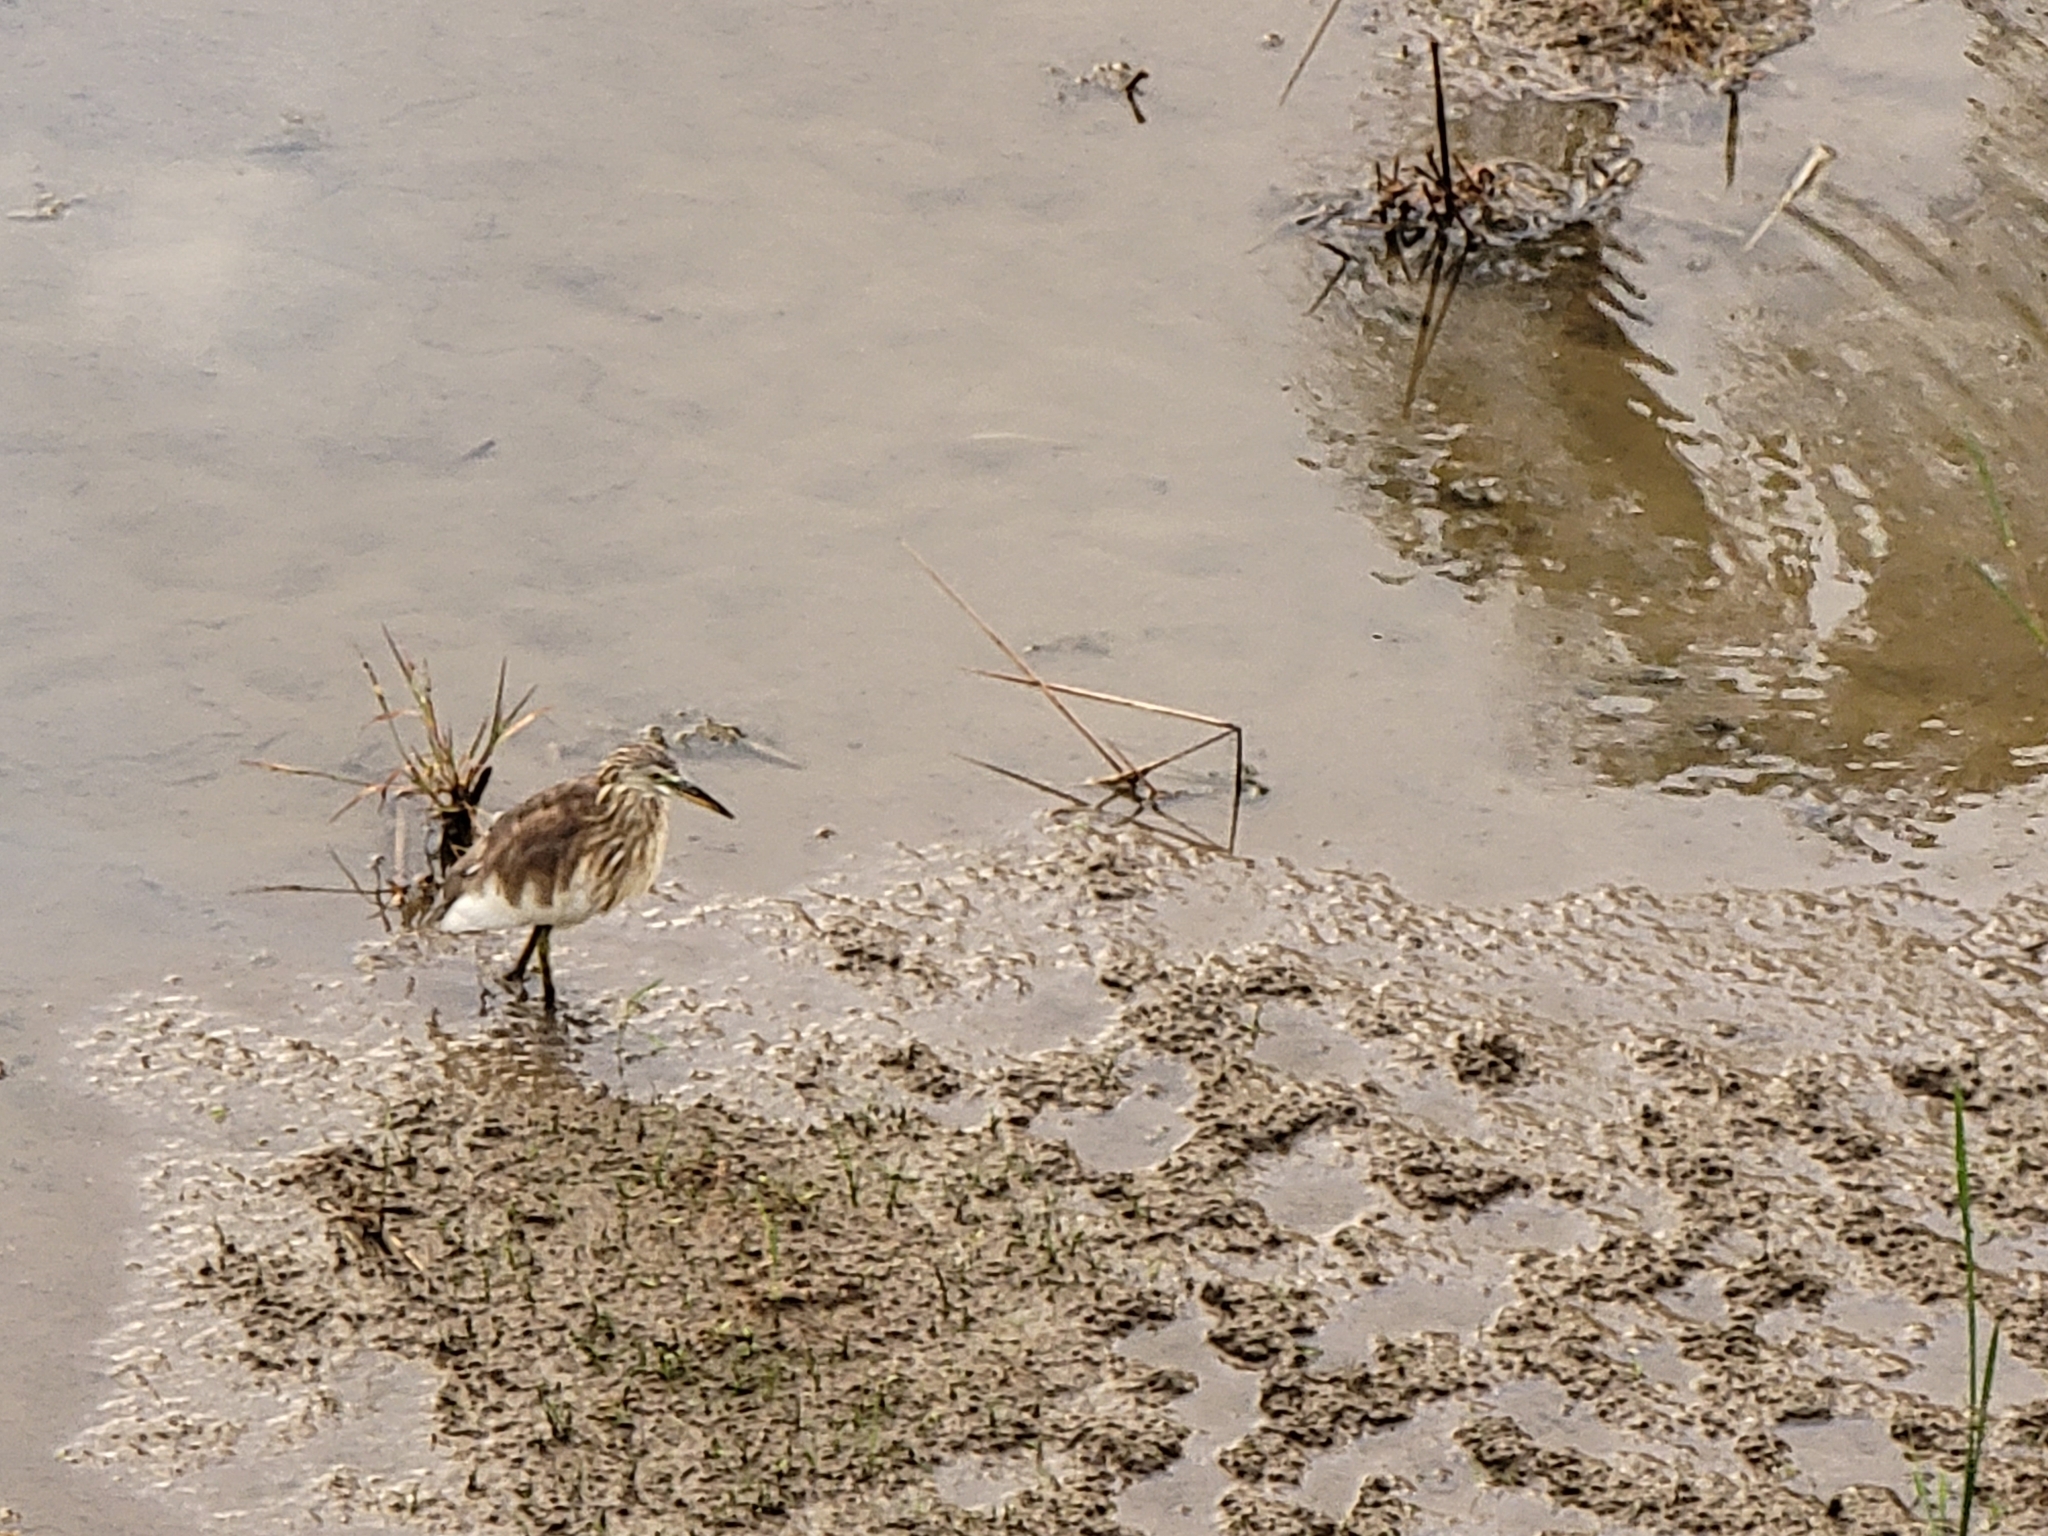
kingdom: Animalia
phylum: Chordata
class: Aves
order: Pelecaniformes
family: Ardeidae
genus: Ardeola
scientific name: Ardeola speciosa
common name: Javan pond heron
